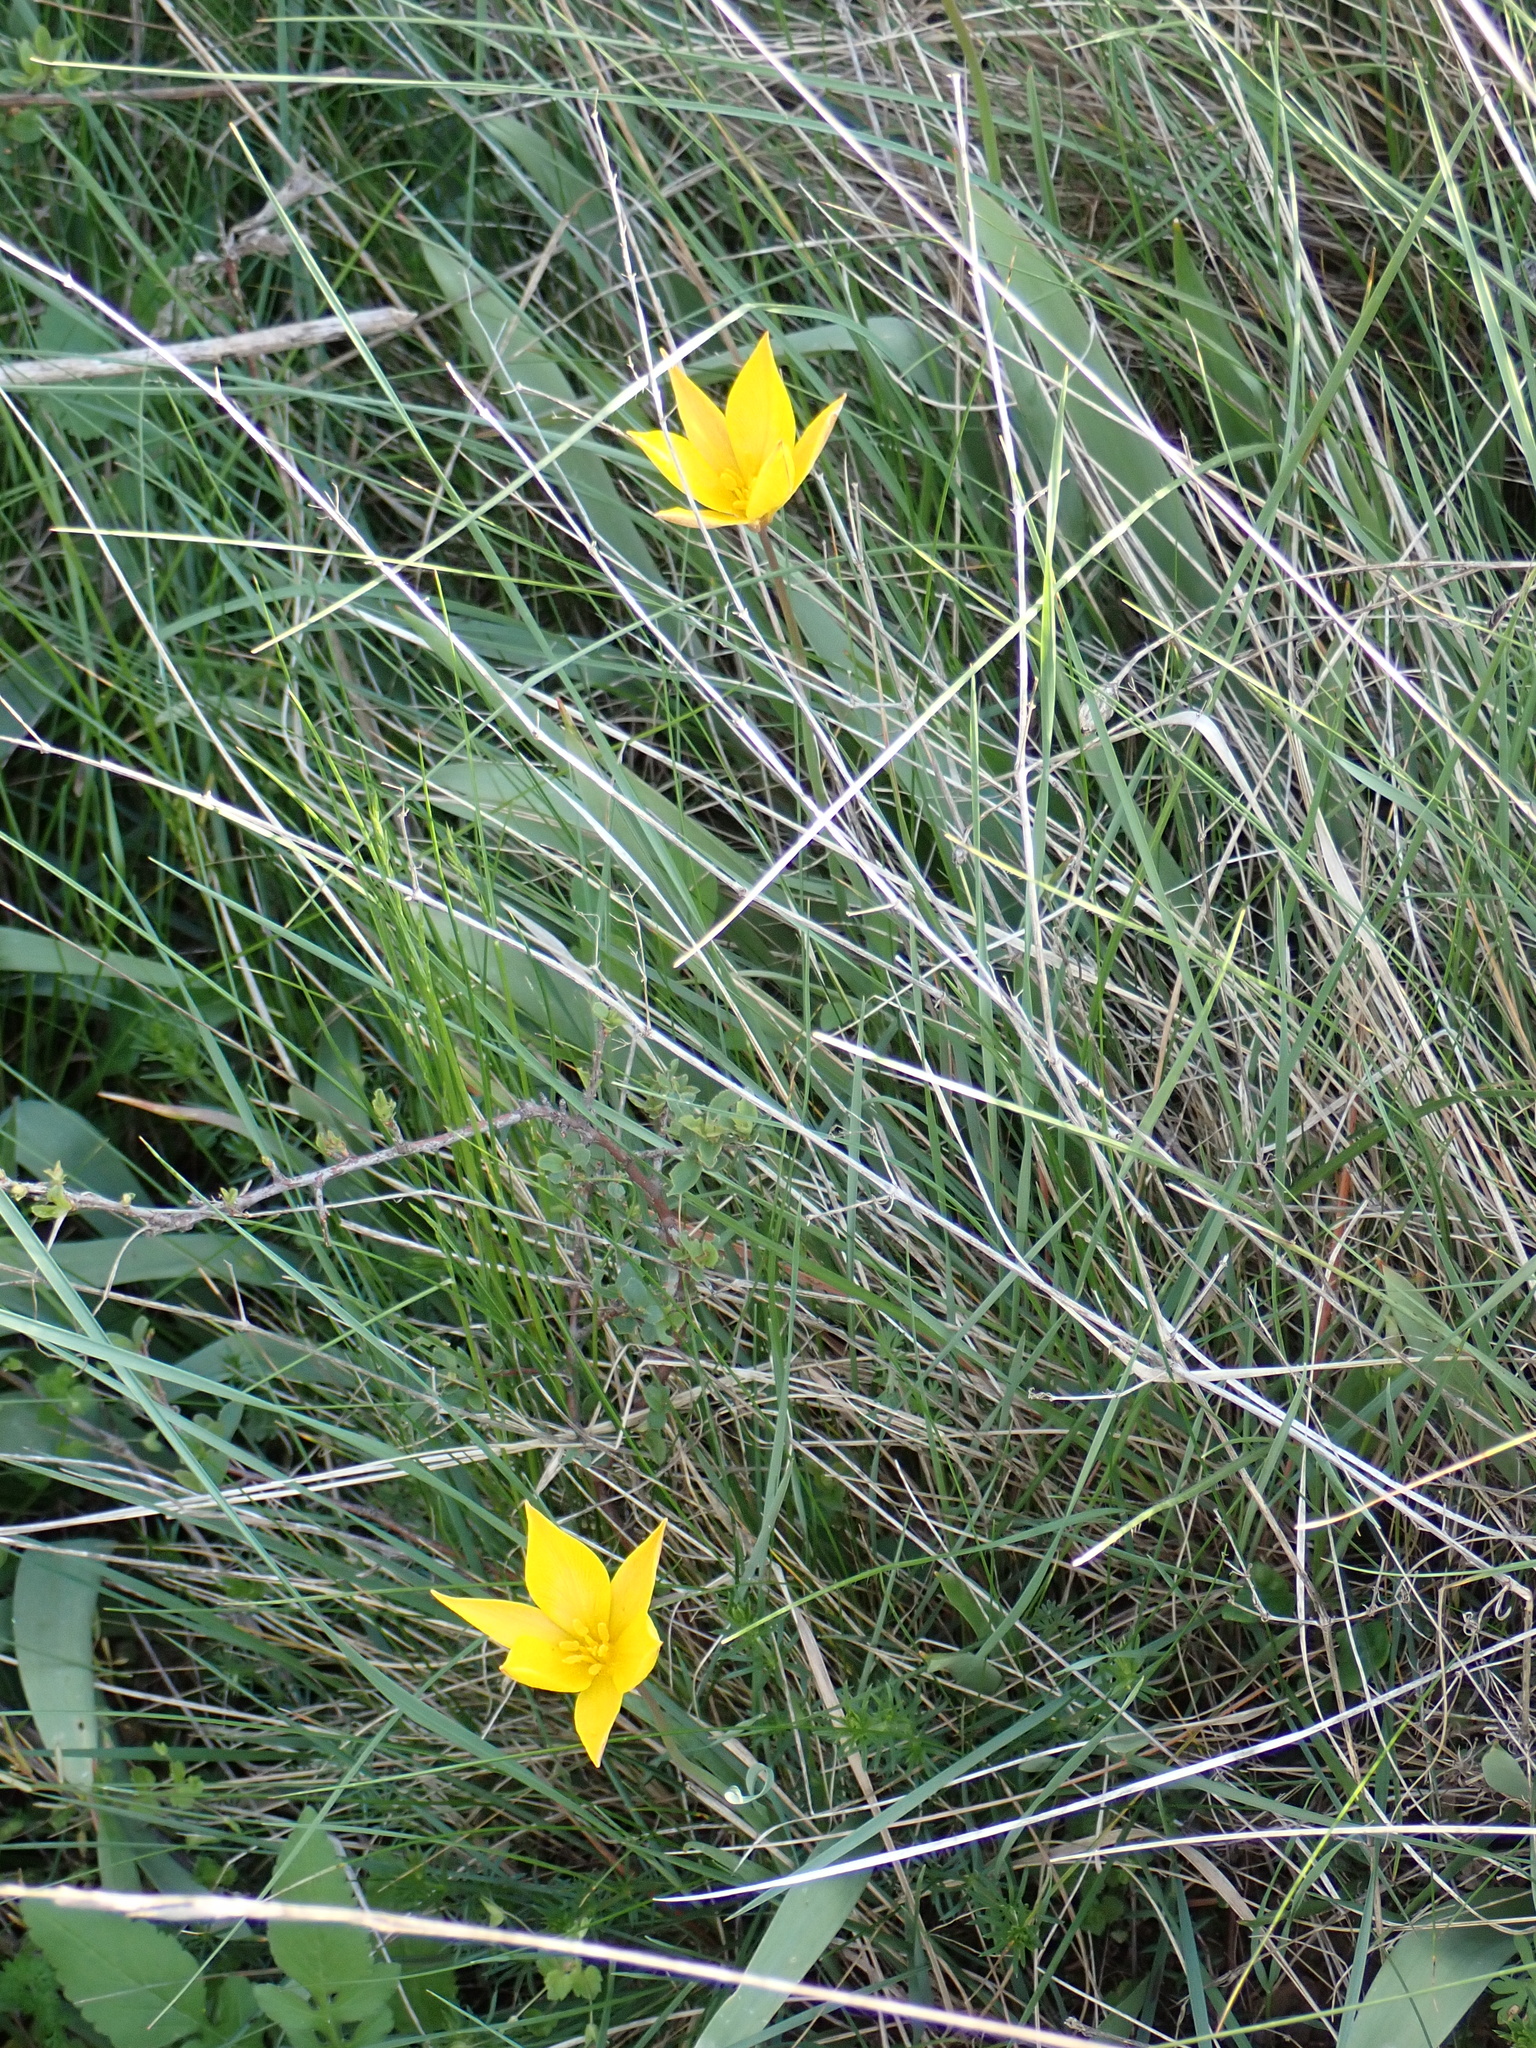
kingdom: Plantae
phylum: Tracheophyta
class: Liliopsida
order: Liliales
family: Liliaceae
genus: Tulipa
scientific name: Tulipa sylvestris
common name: Wild tulip
